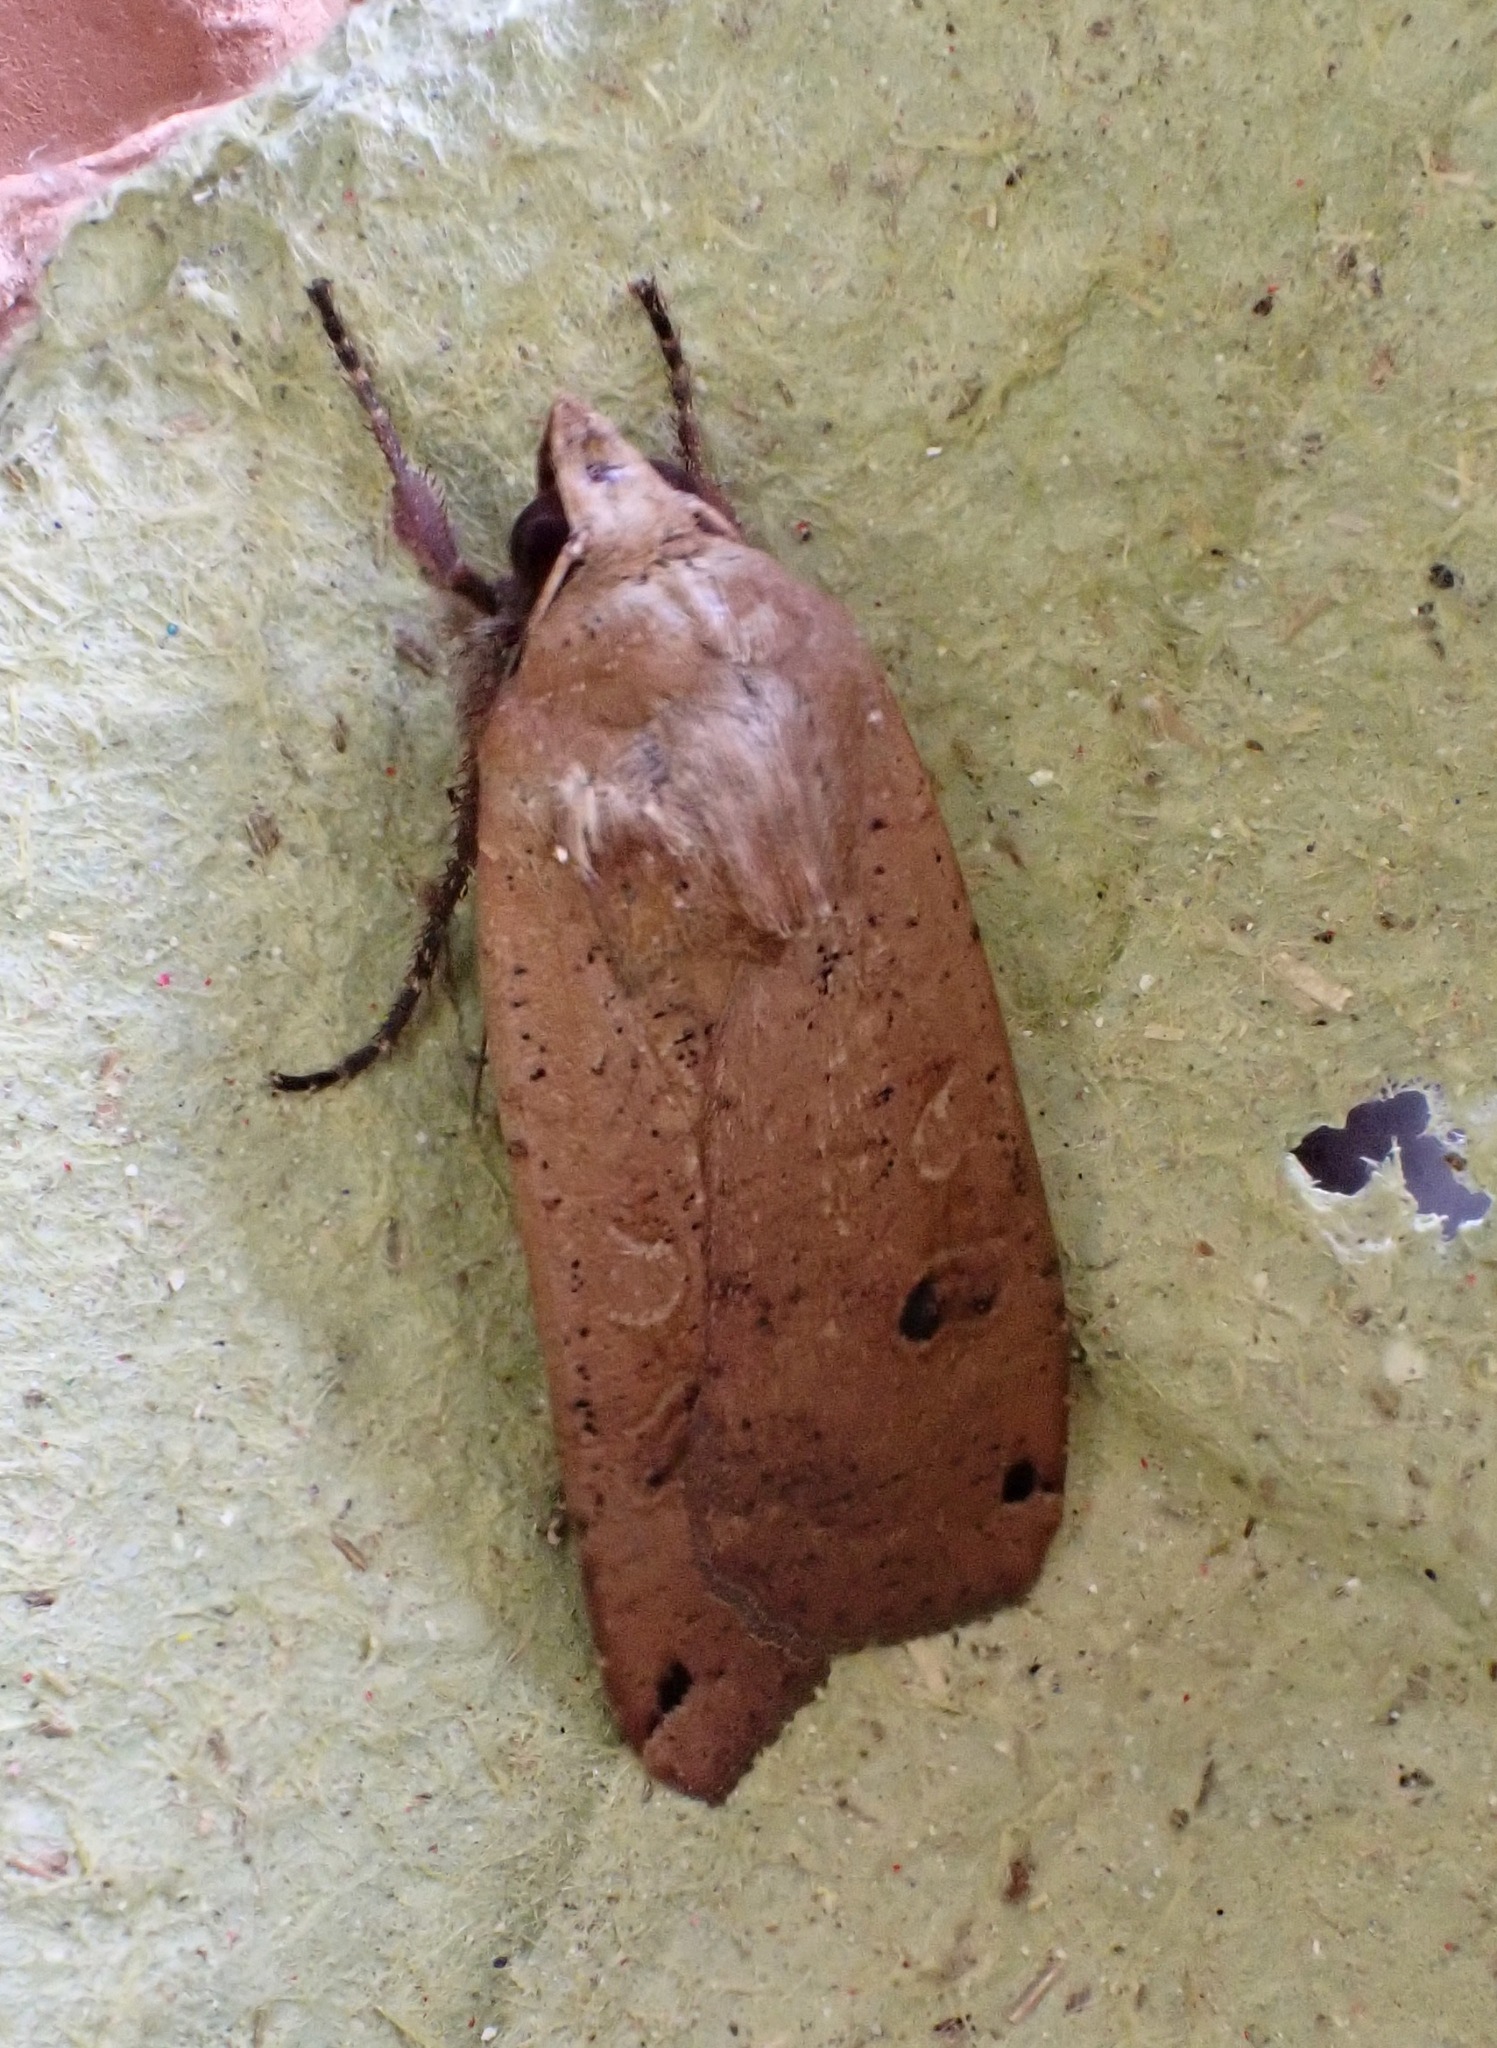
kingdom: Animalia
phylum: Arthropoda
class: Insecta
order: Lepidoptera
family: Noctuidae
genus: Noctua
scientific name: Noctua pronuba
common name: Large yellow underwing
